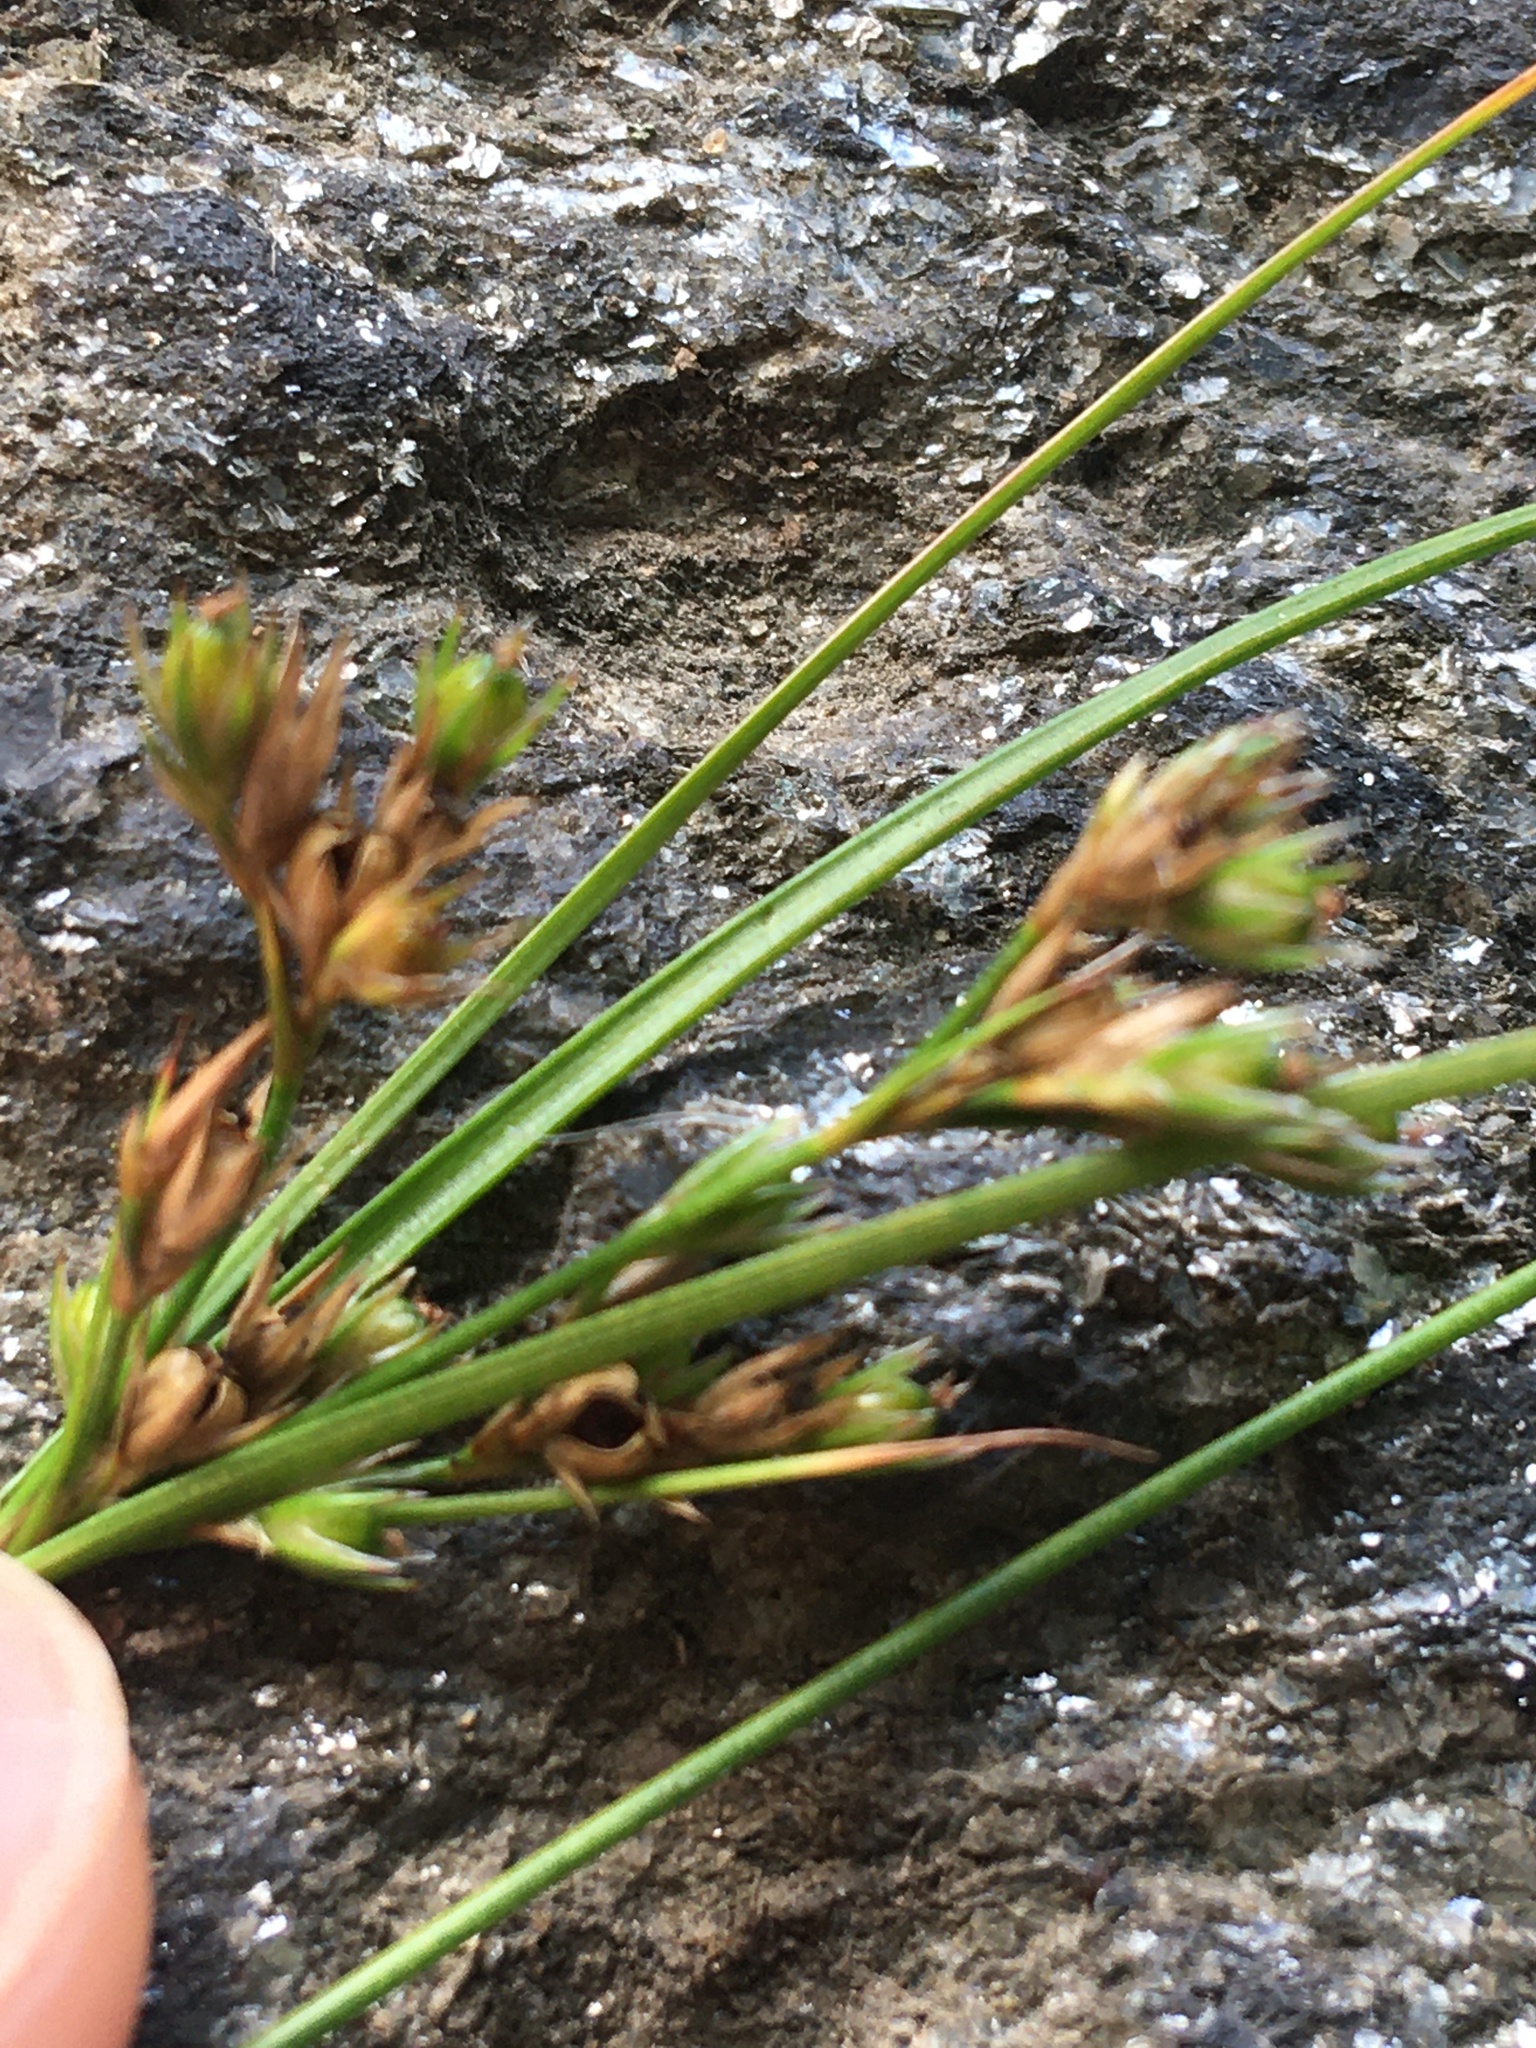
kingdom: Plantae
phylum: Tracheophyta
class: Liliopsida
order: Poales
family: Juncaceae
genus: Juncus
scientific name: Juncus tenuis
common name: Slender rush
